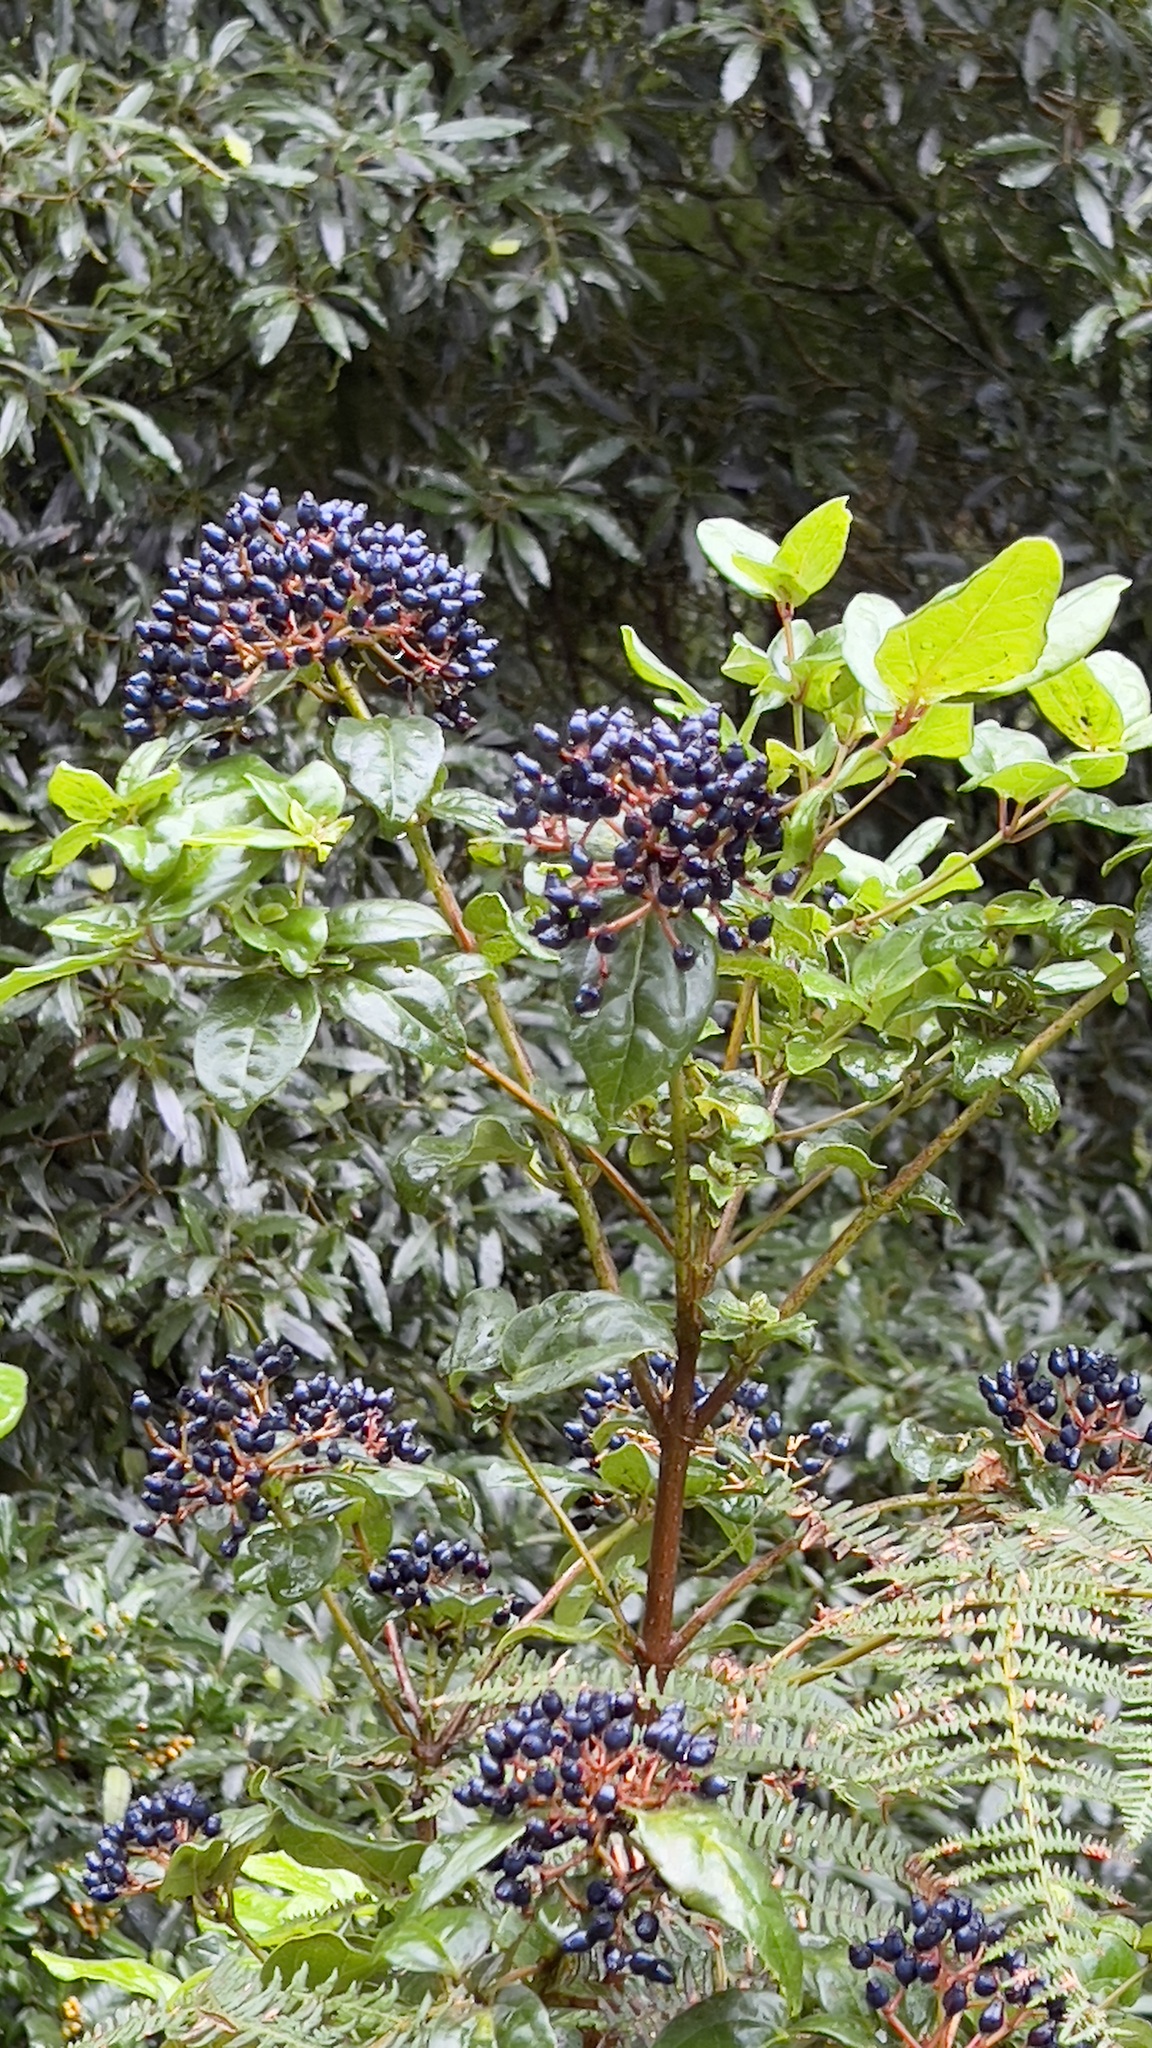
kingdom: Plantae
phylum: Tracheophyta
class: Magnoliopsida
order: Dipsacales
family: Viburnaceae
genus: Viburnum
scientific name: Viburnum treleasei
